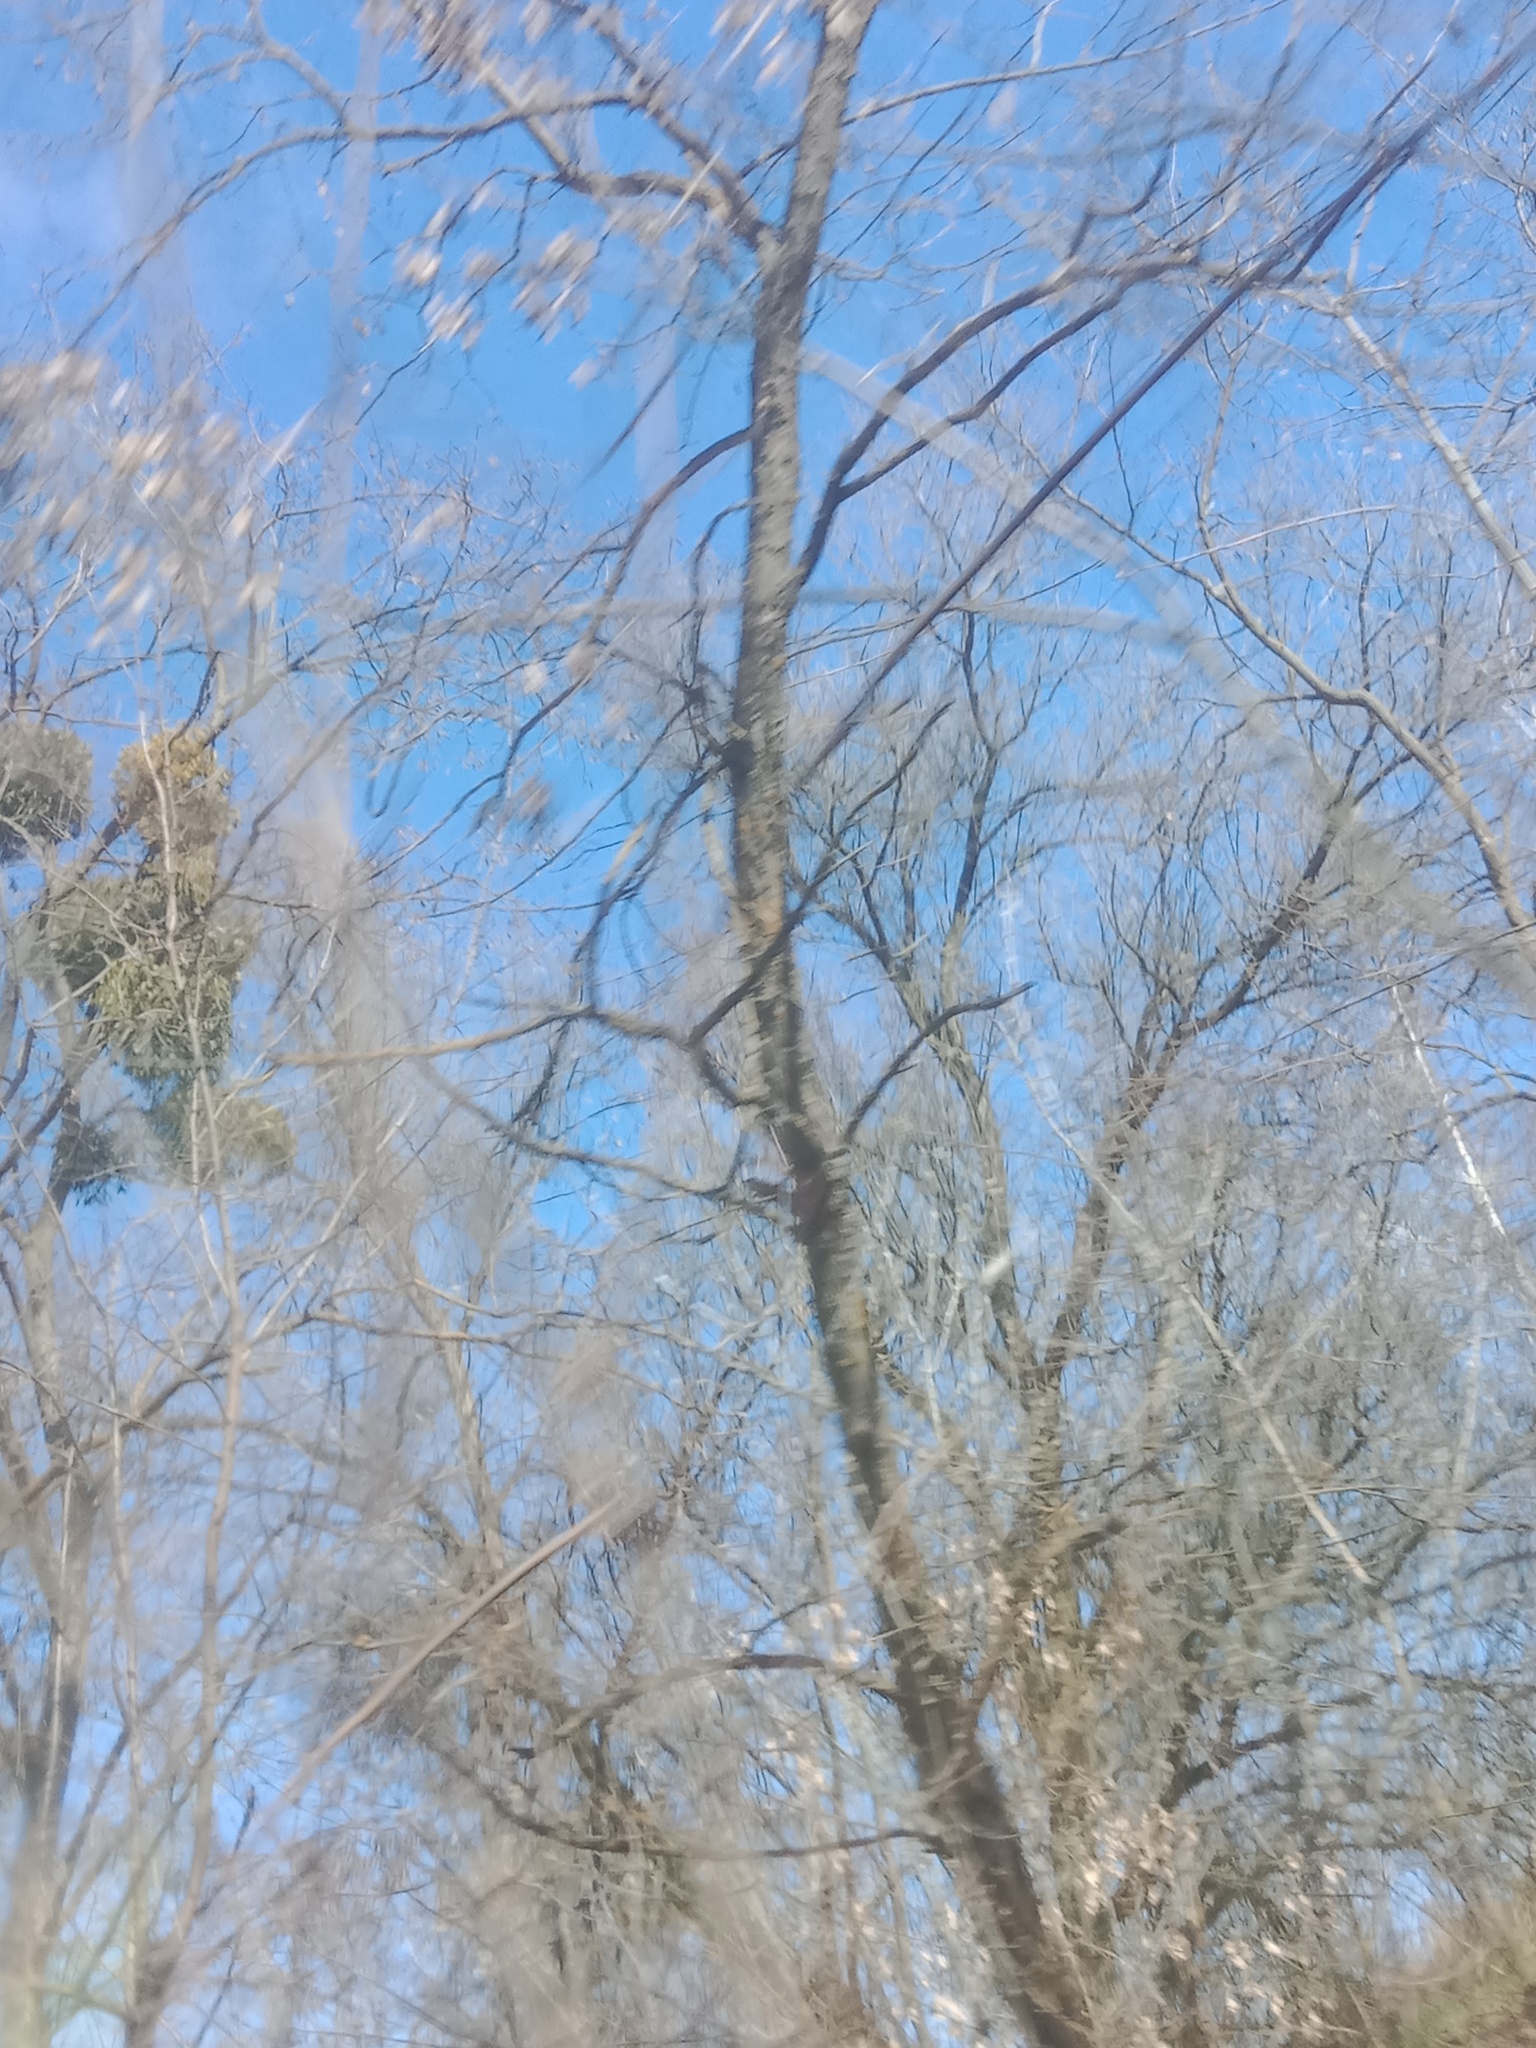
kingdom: Plantae
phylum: Tracheophyta
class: Magnoliopsida
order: Santalales
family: Viscaceae
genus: Viscum
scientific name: Viscum album
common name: Mistletoe
